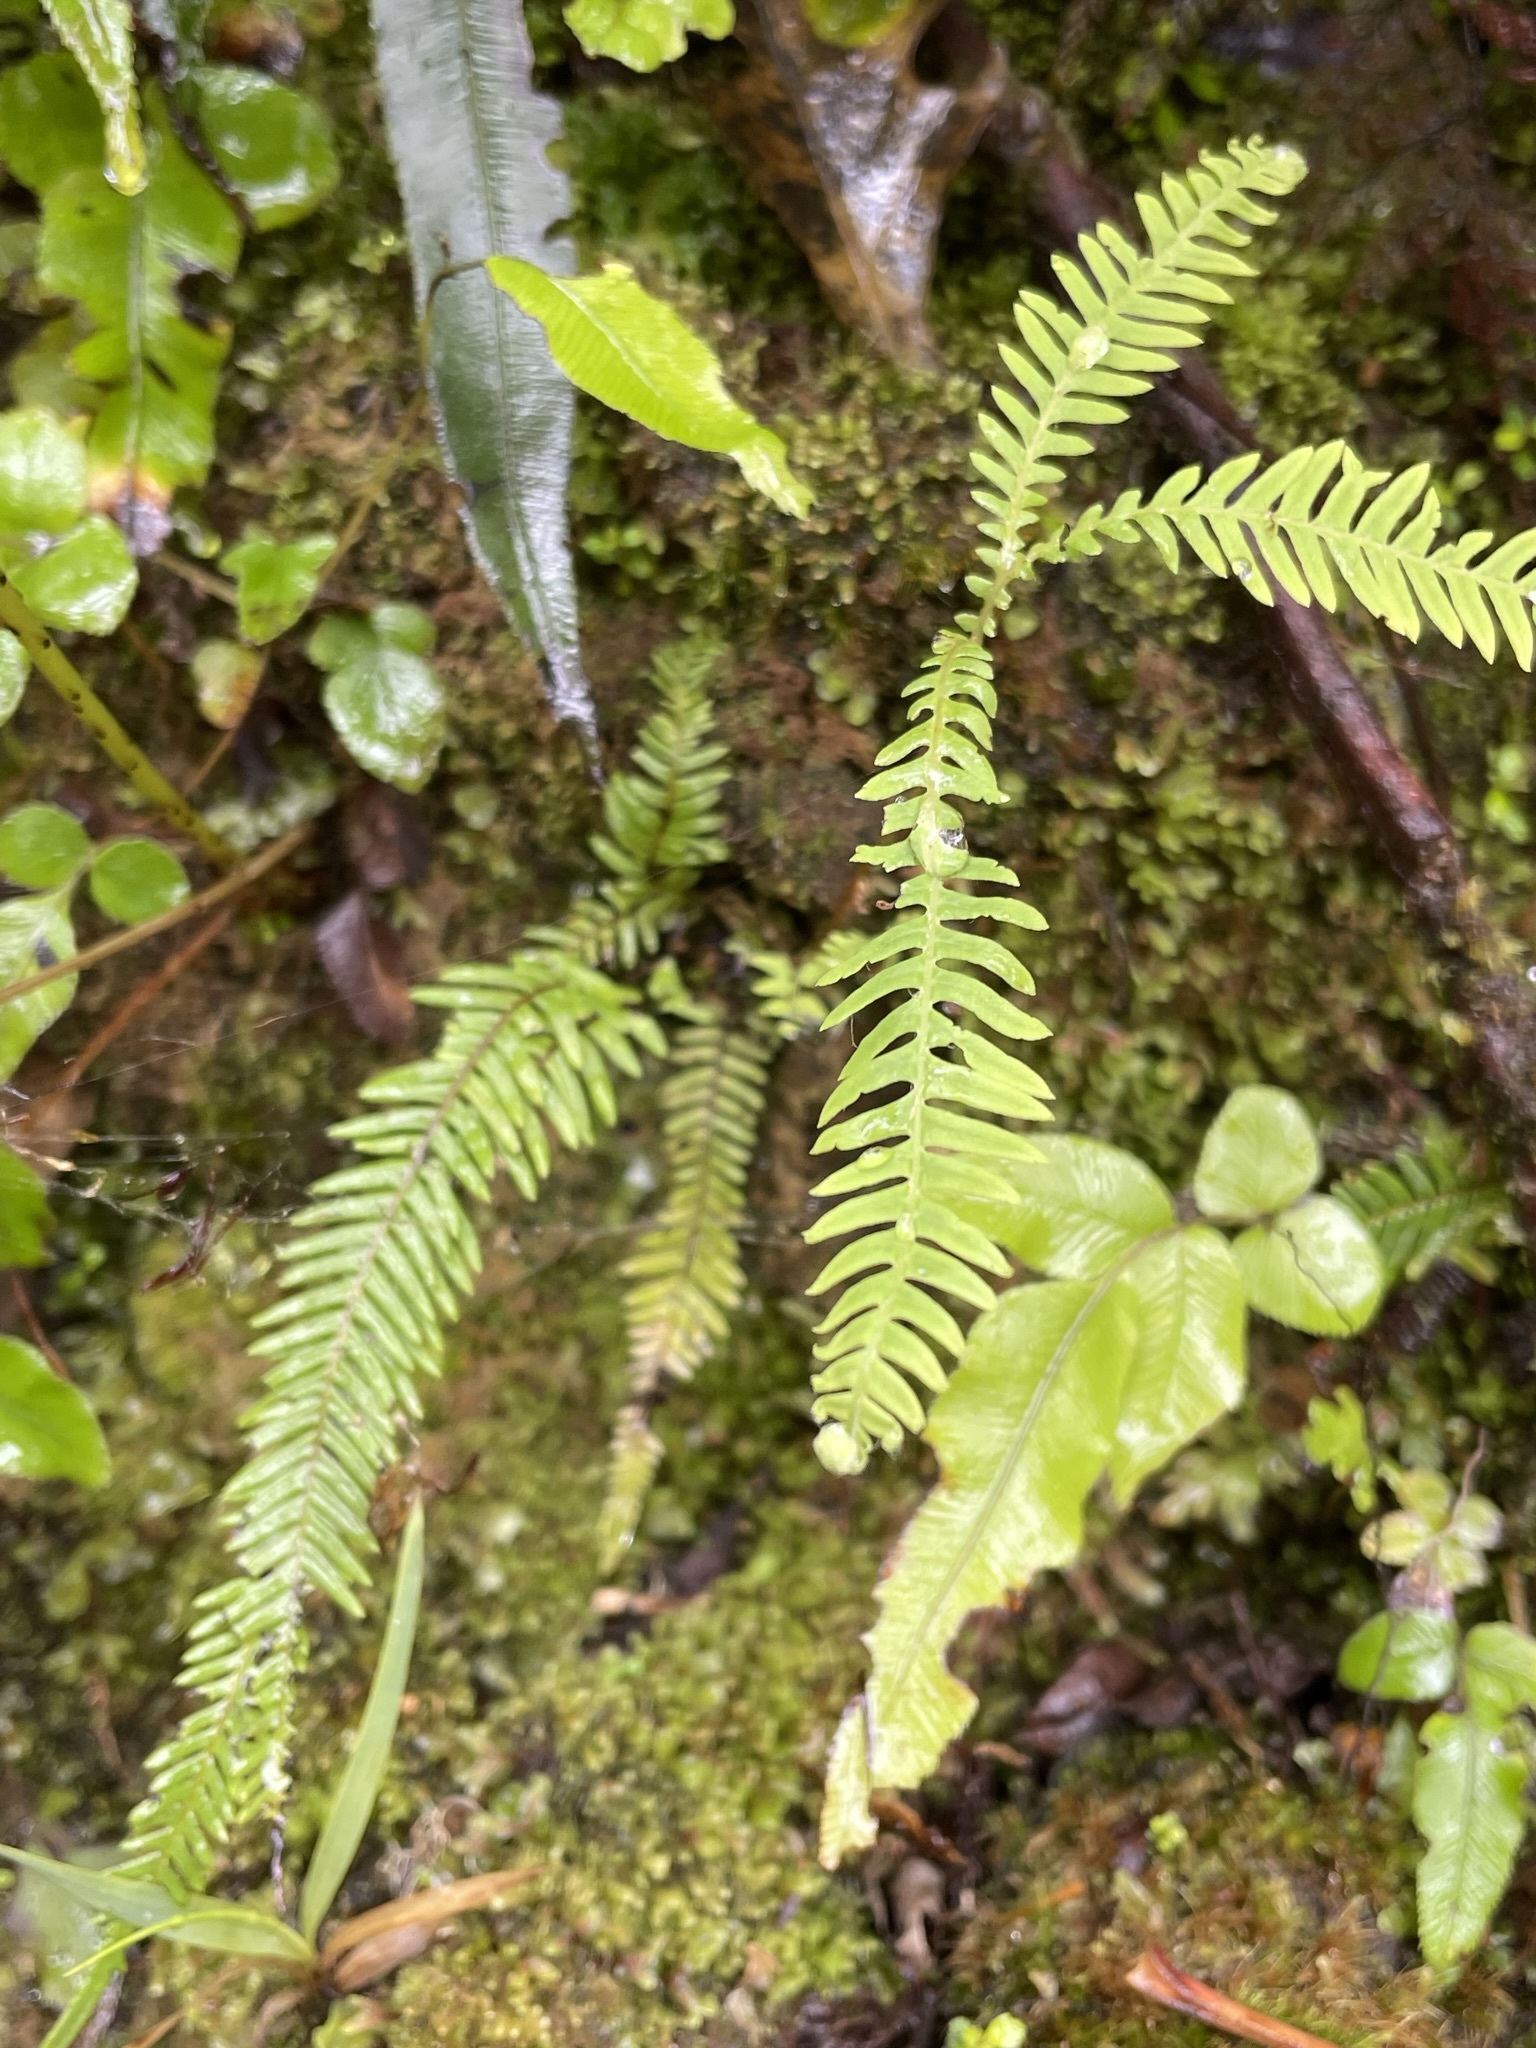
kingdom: Plantae
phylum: Tracheophyta
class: Polypodiopsida
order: Polypodiales
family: Polypodiaceae
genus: Notogrammitis
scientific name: Notogrammitis heterophylla
